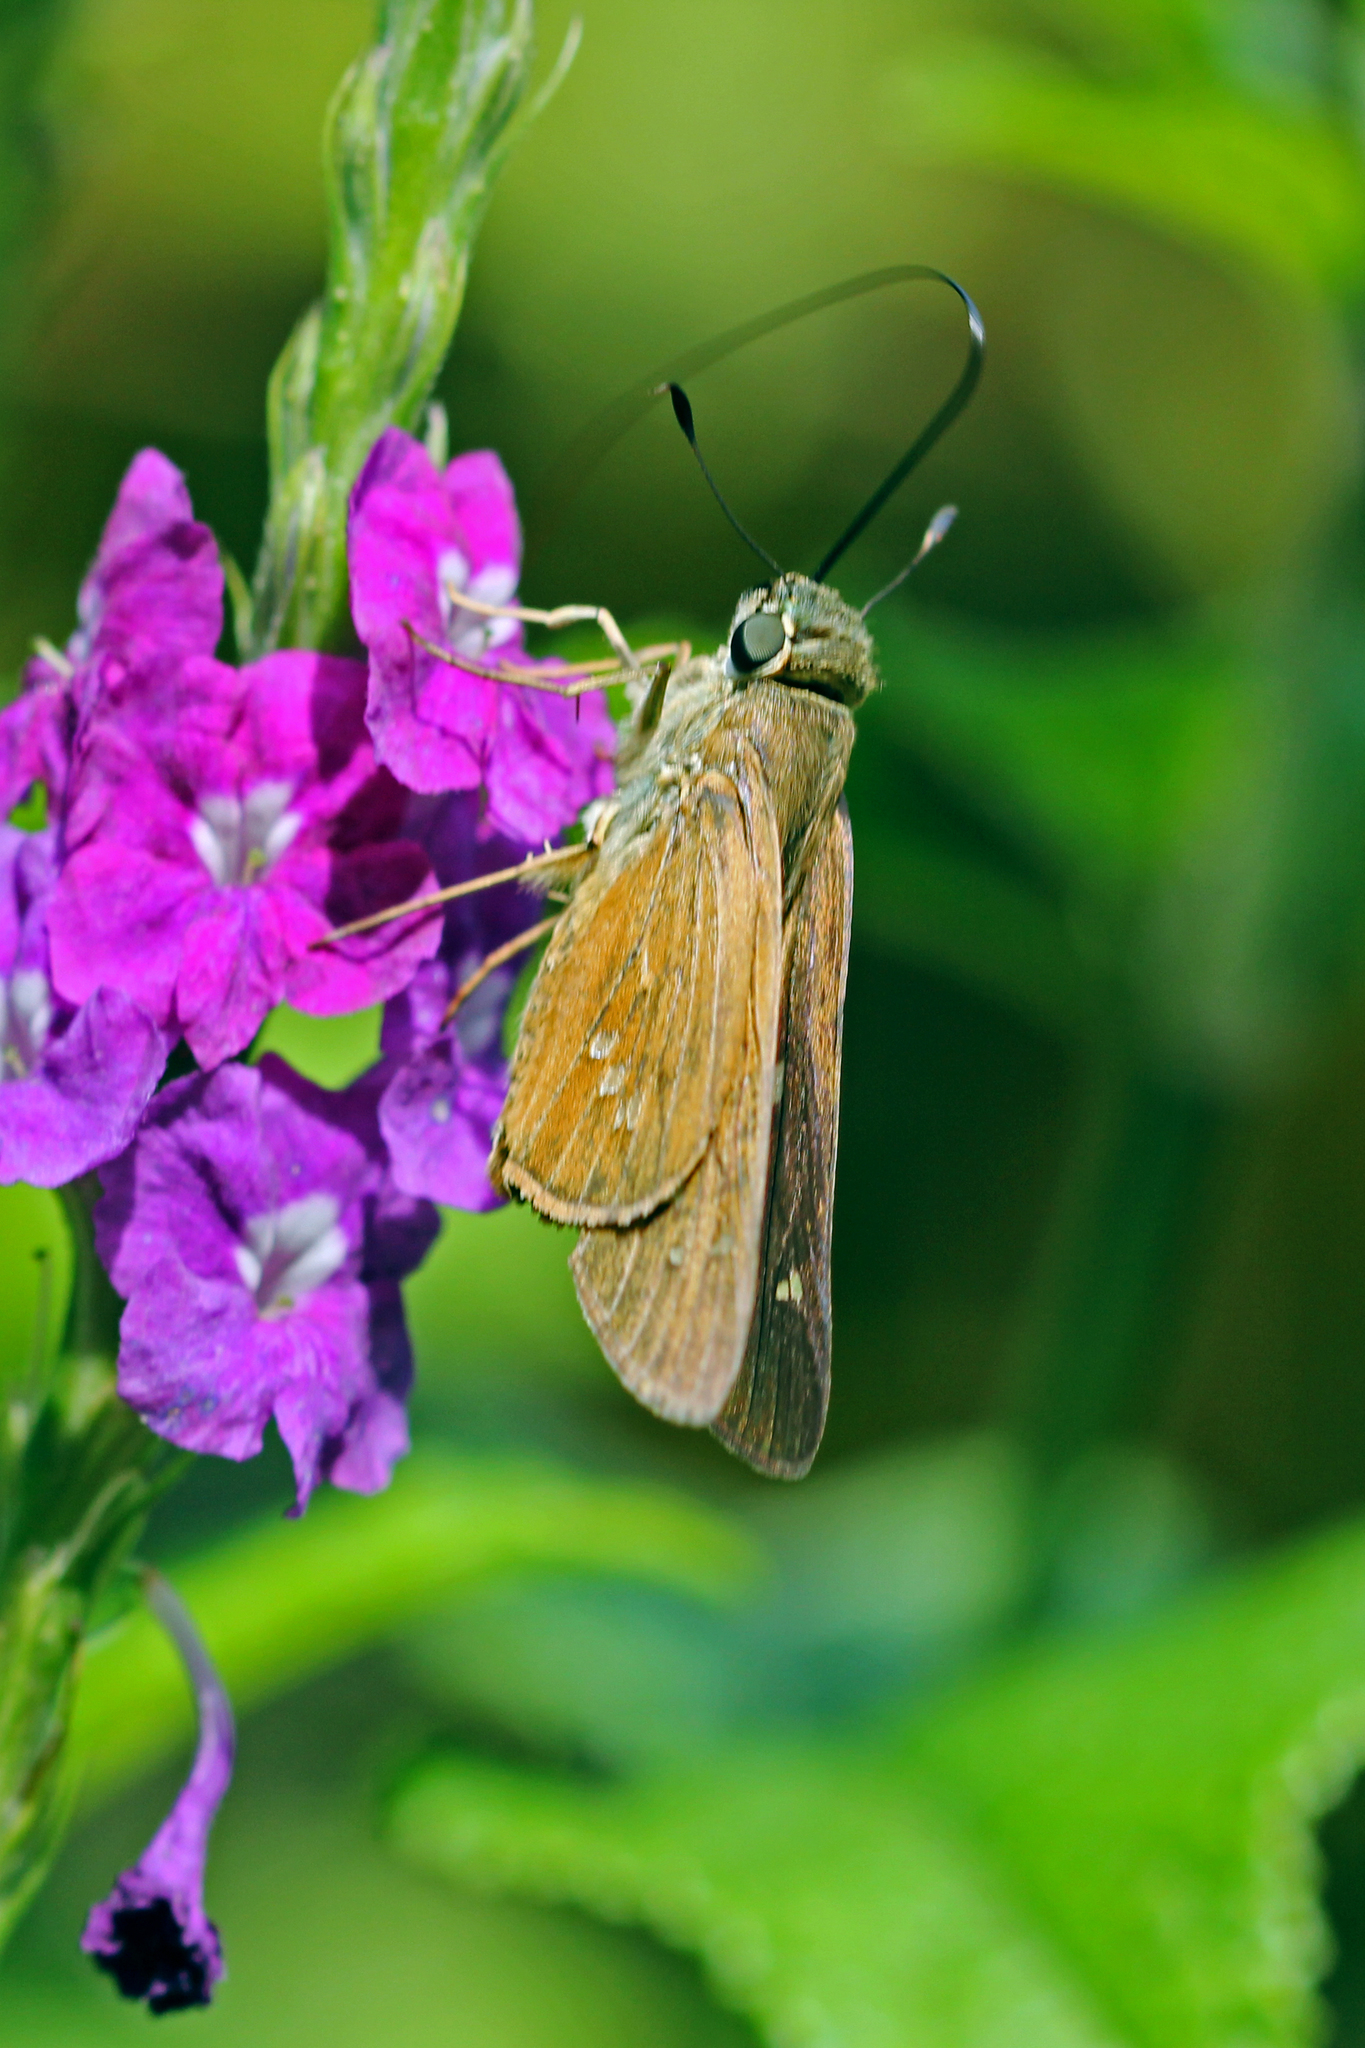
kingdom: Animalia
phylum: Arthropoda
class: Insecta
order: Lepidoptera
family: Hesperiidae
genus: Calpodes
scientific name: Calpodes ethlius
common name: Brazilian skipper
